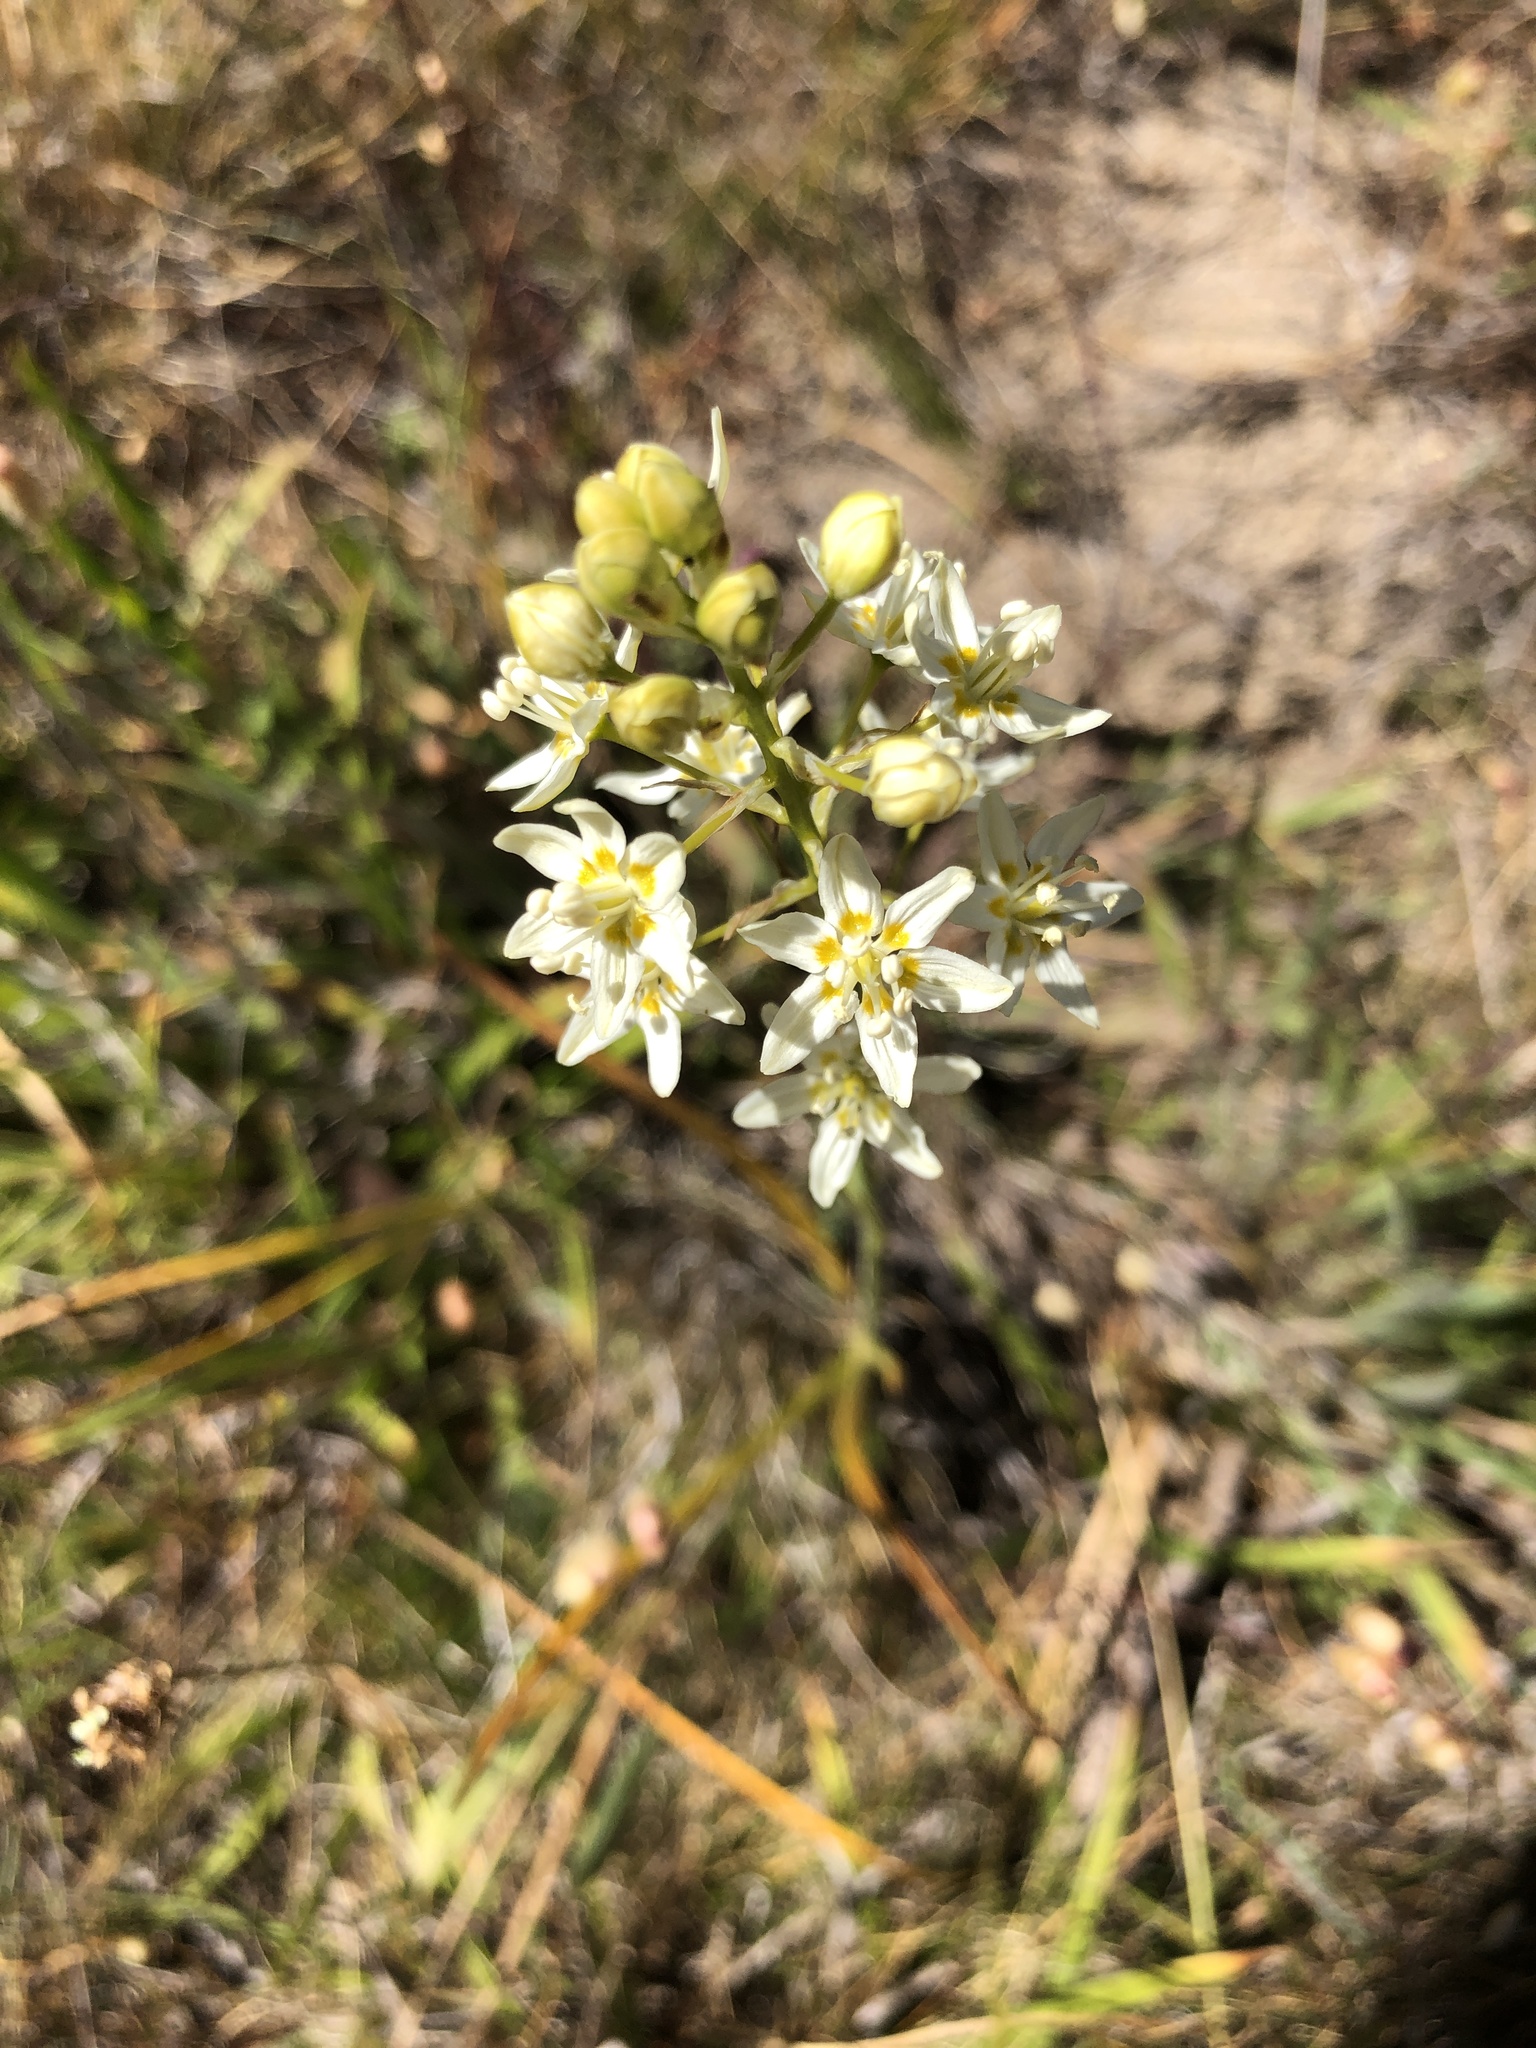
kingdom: Plantae
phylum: Tracheophyta
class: Liliopsida
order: Liliales
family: Melanthiaceae
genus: Toxicoscordion
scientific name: Toxicoscordion fremontii
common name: Fremont's death camas
